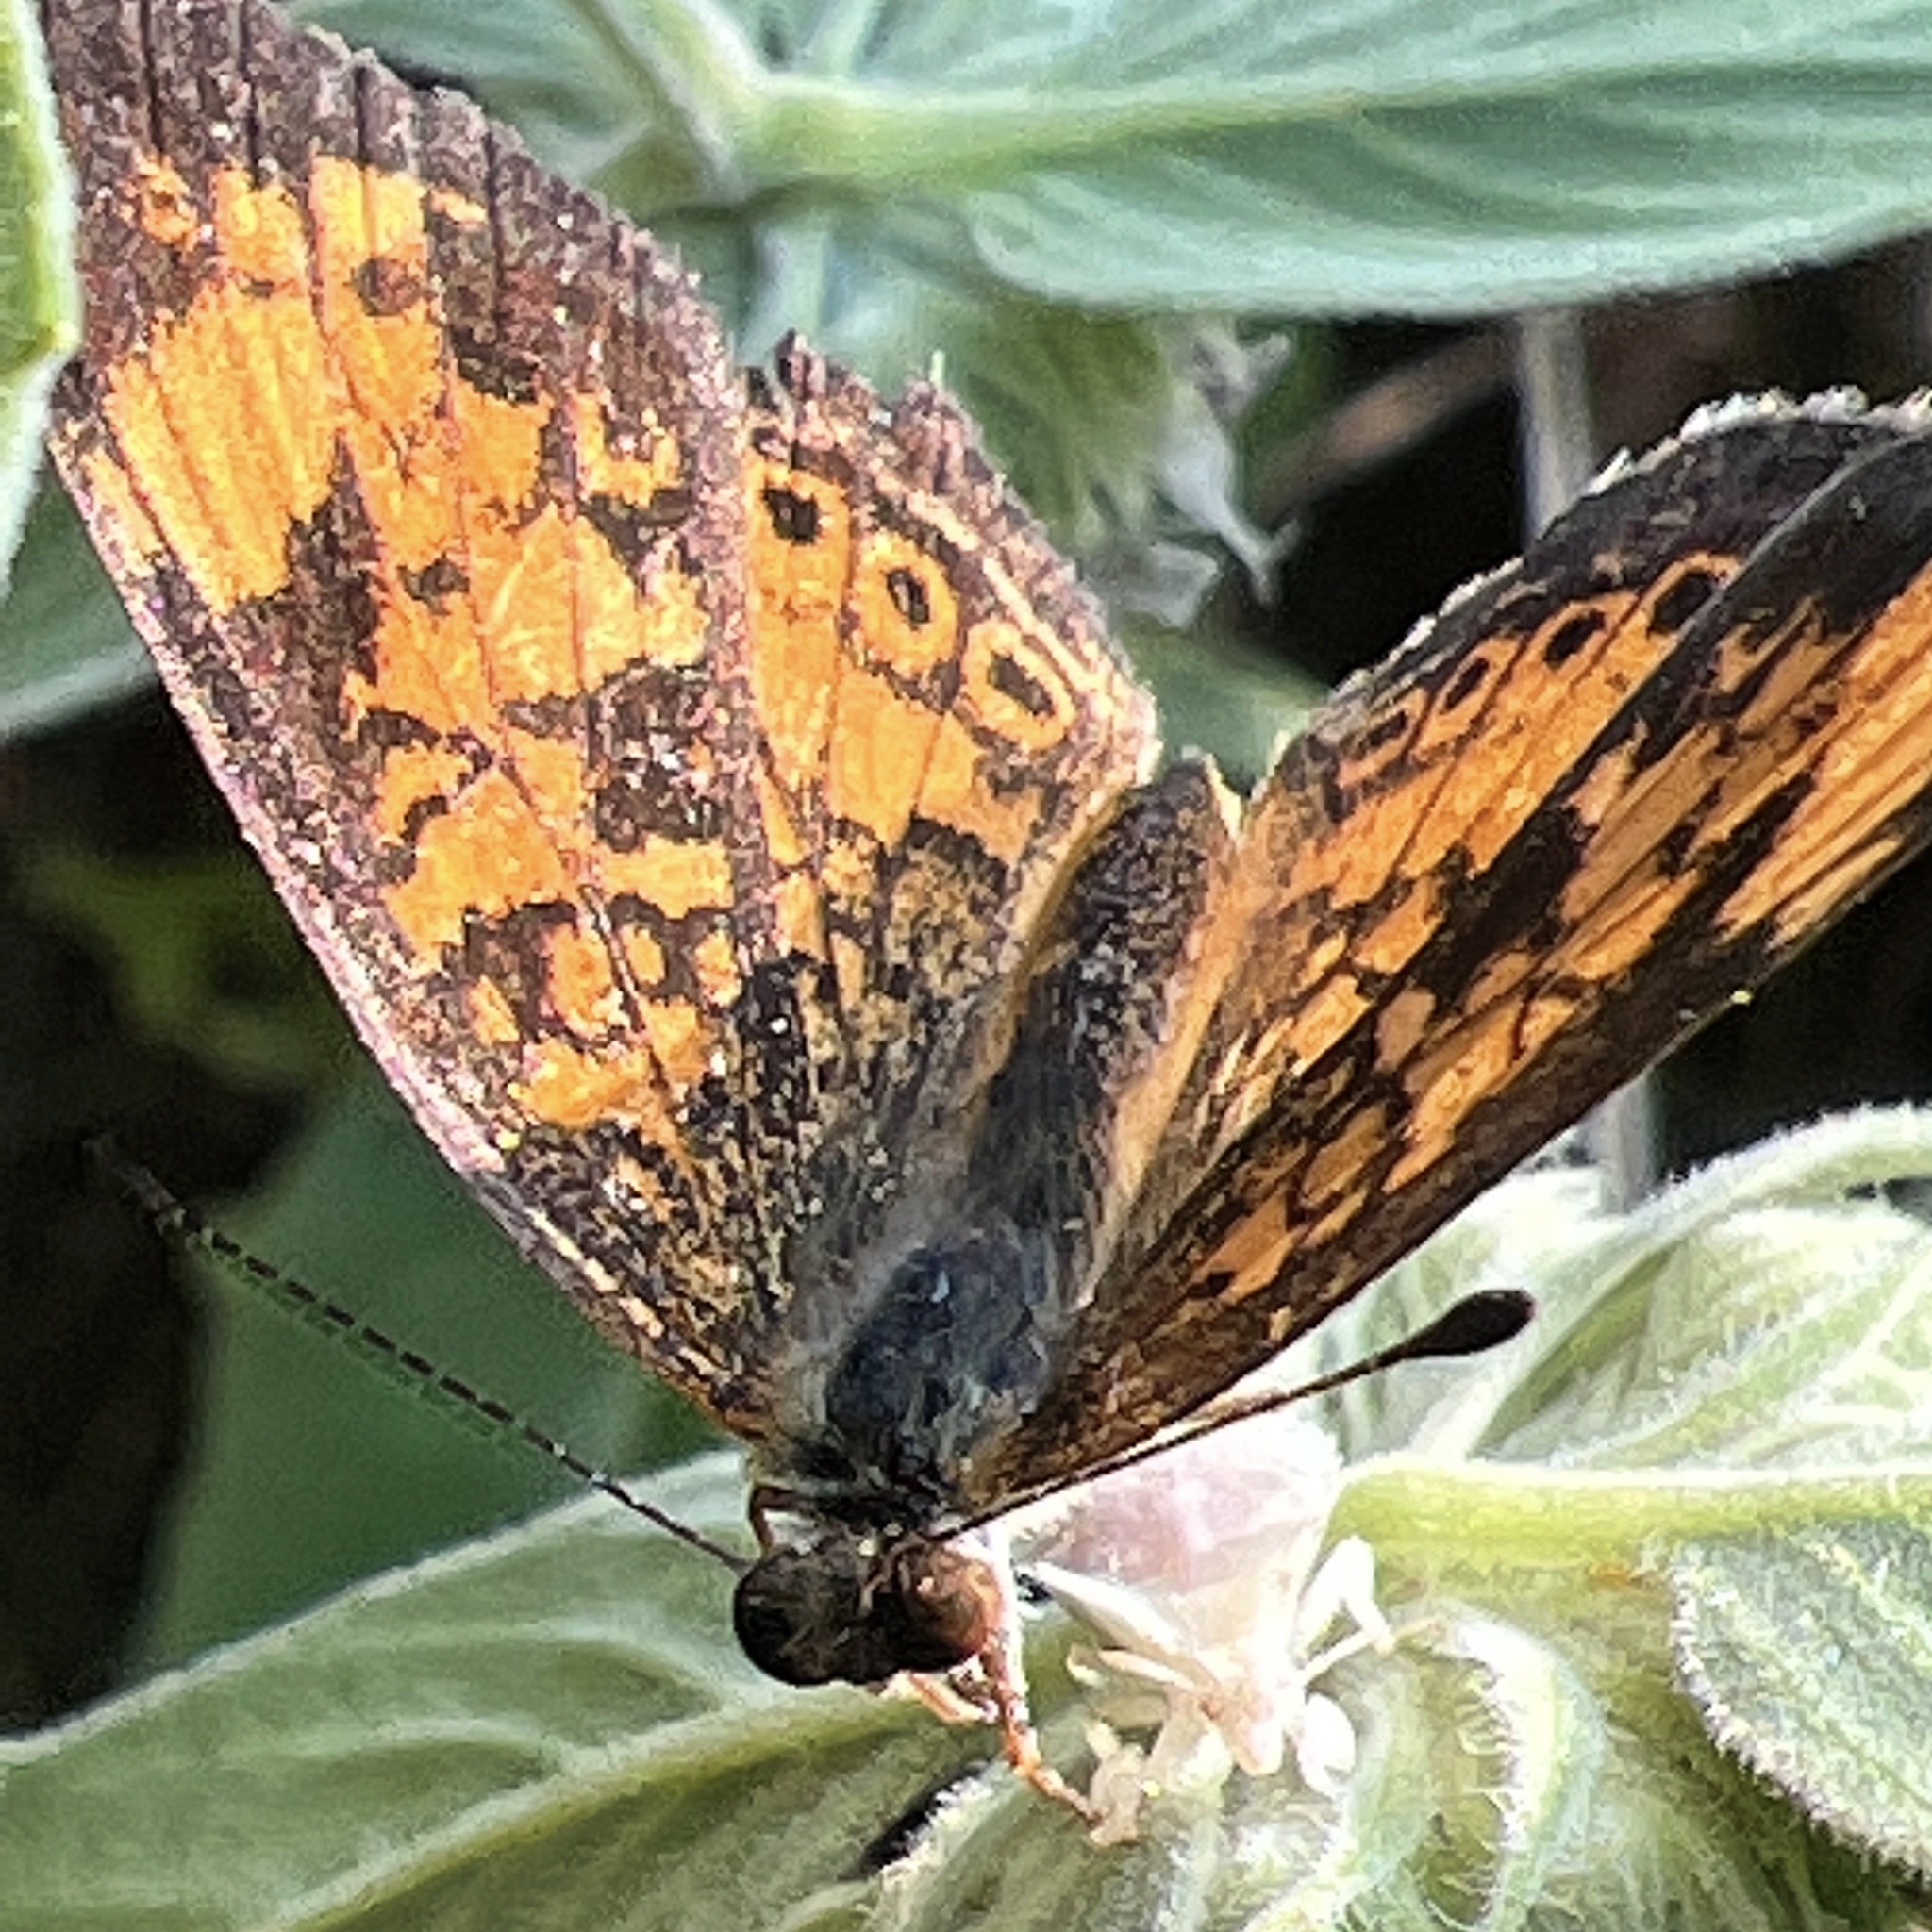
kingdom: Animalia
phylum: Arthropoda
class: Insecta
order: Lepidoptera
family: Nymphalidae
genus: Phyciodes
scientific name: Phyciodes tharos
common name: Pearl crescent
